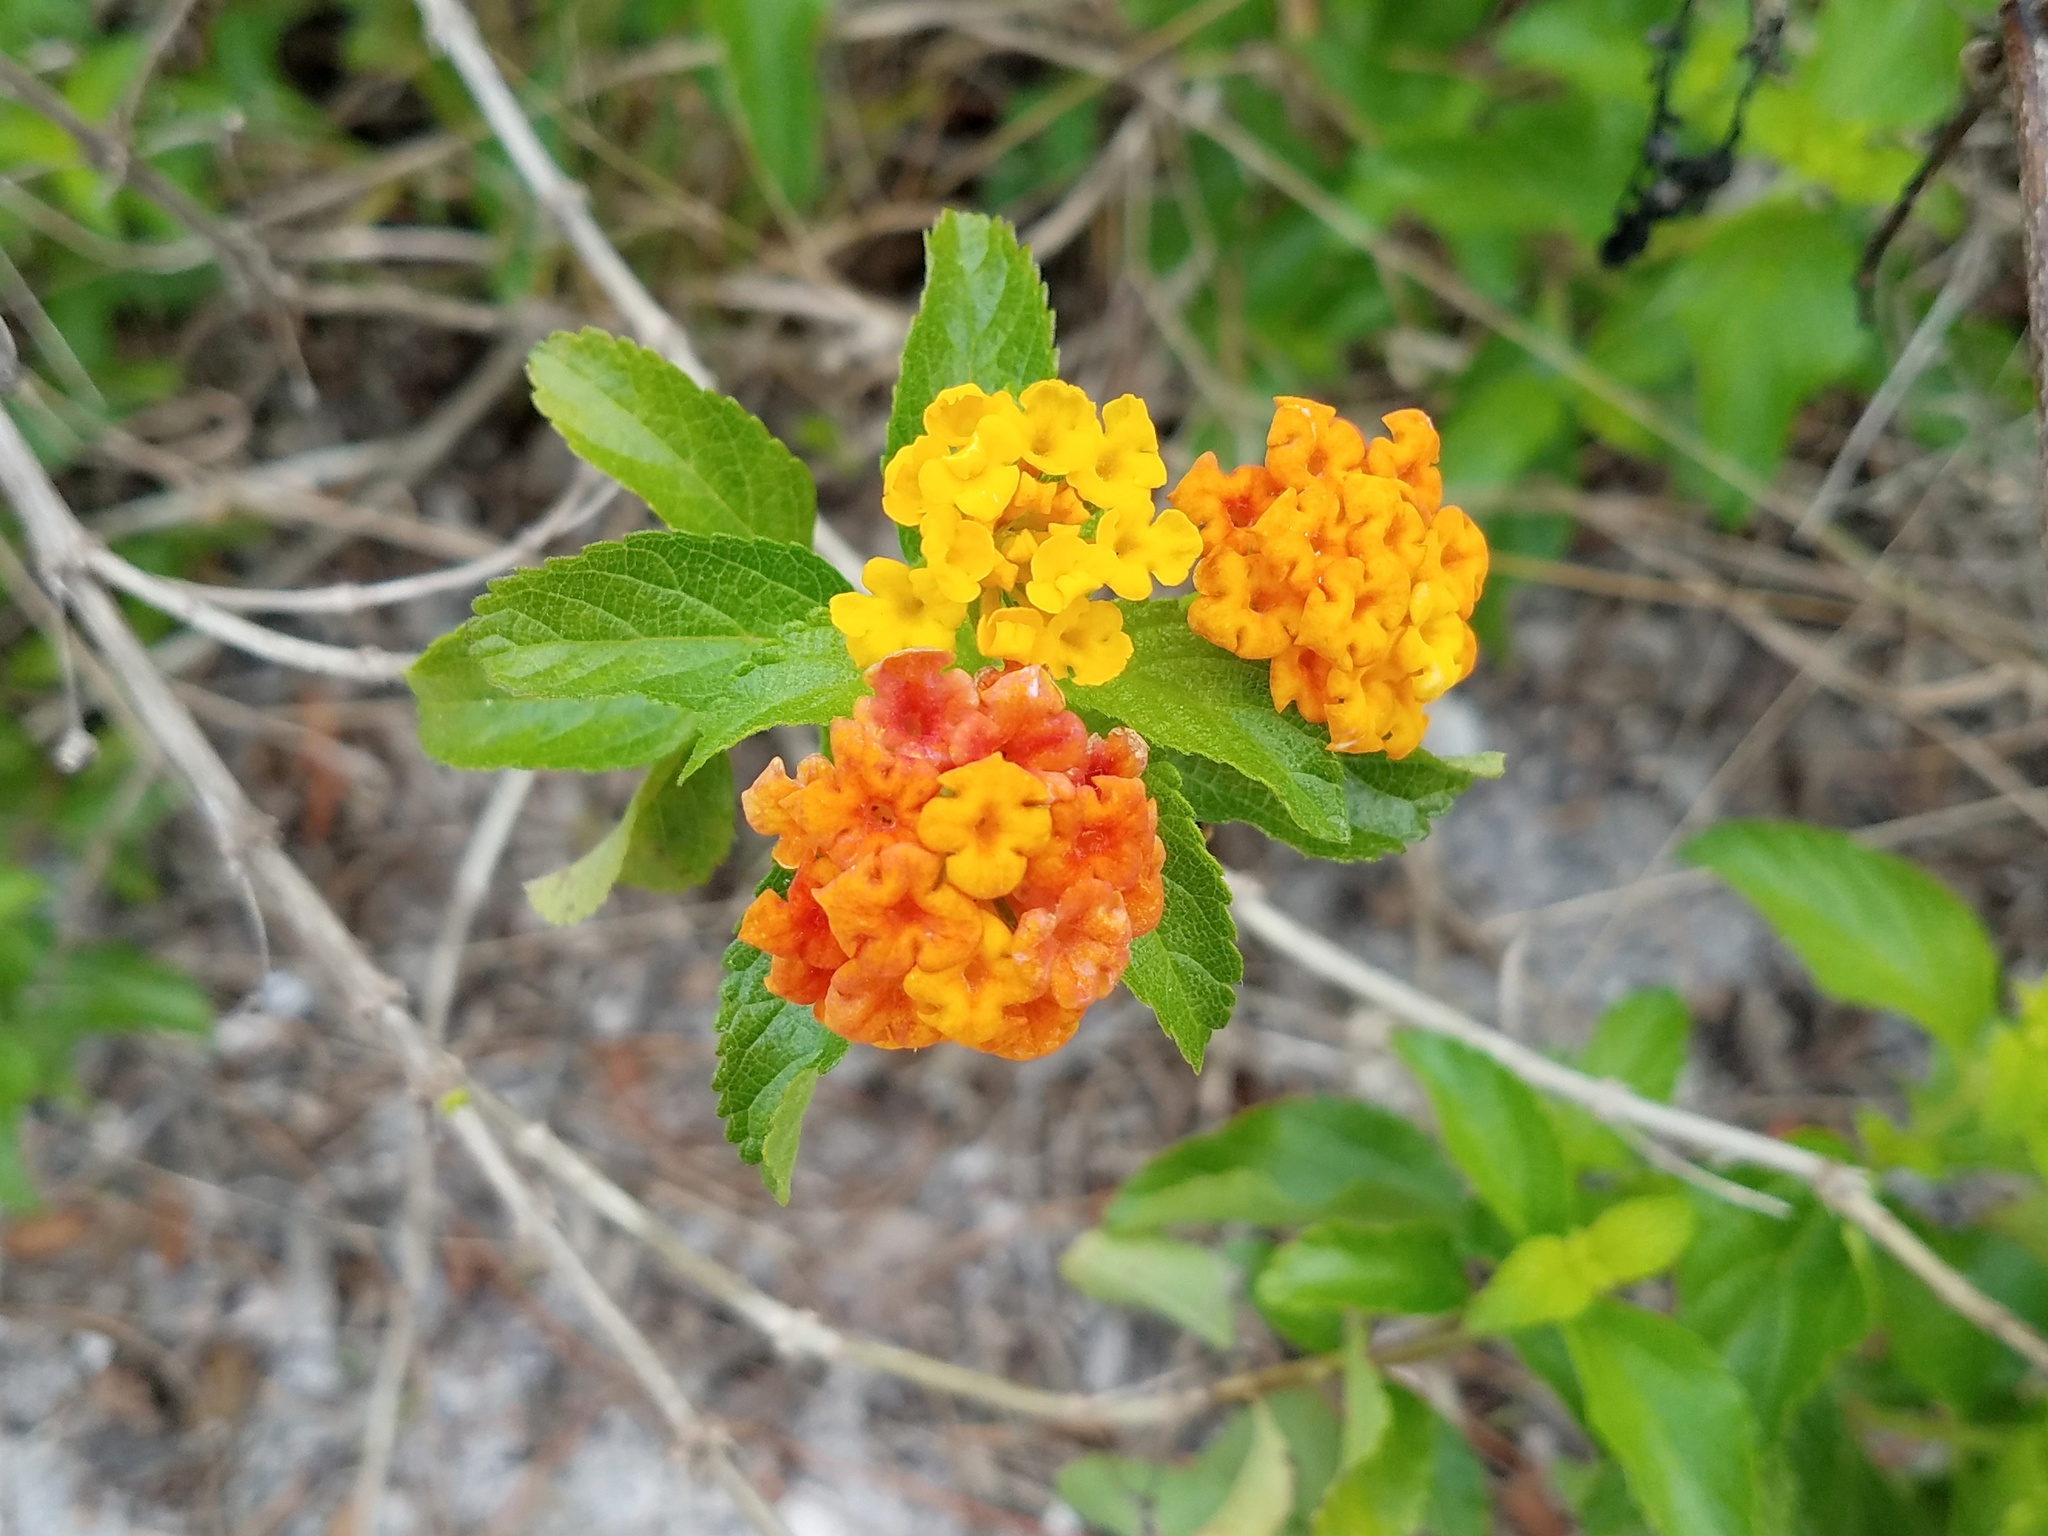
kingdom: Plantae
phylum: Tracheophyta
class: Magnoliopsida
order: Lamiales
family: Verbenaceae
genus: Lantana
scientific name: Lantana camara
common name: Lantana
